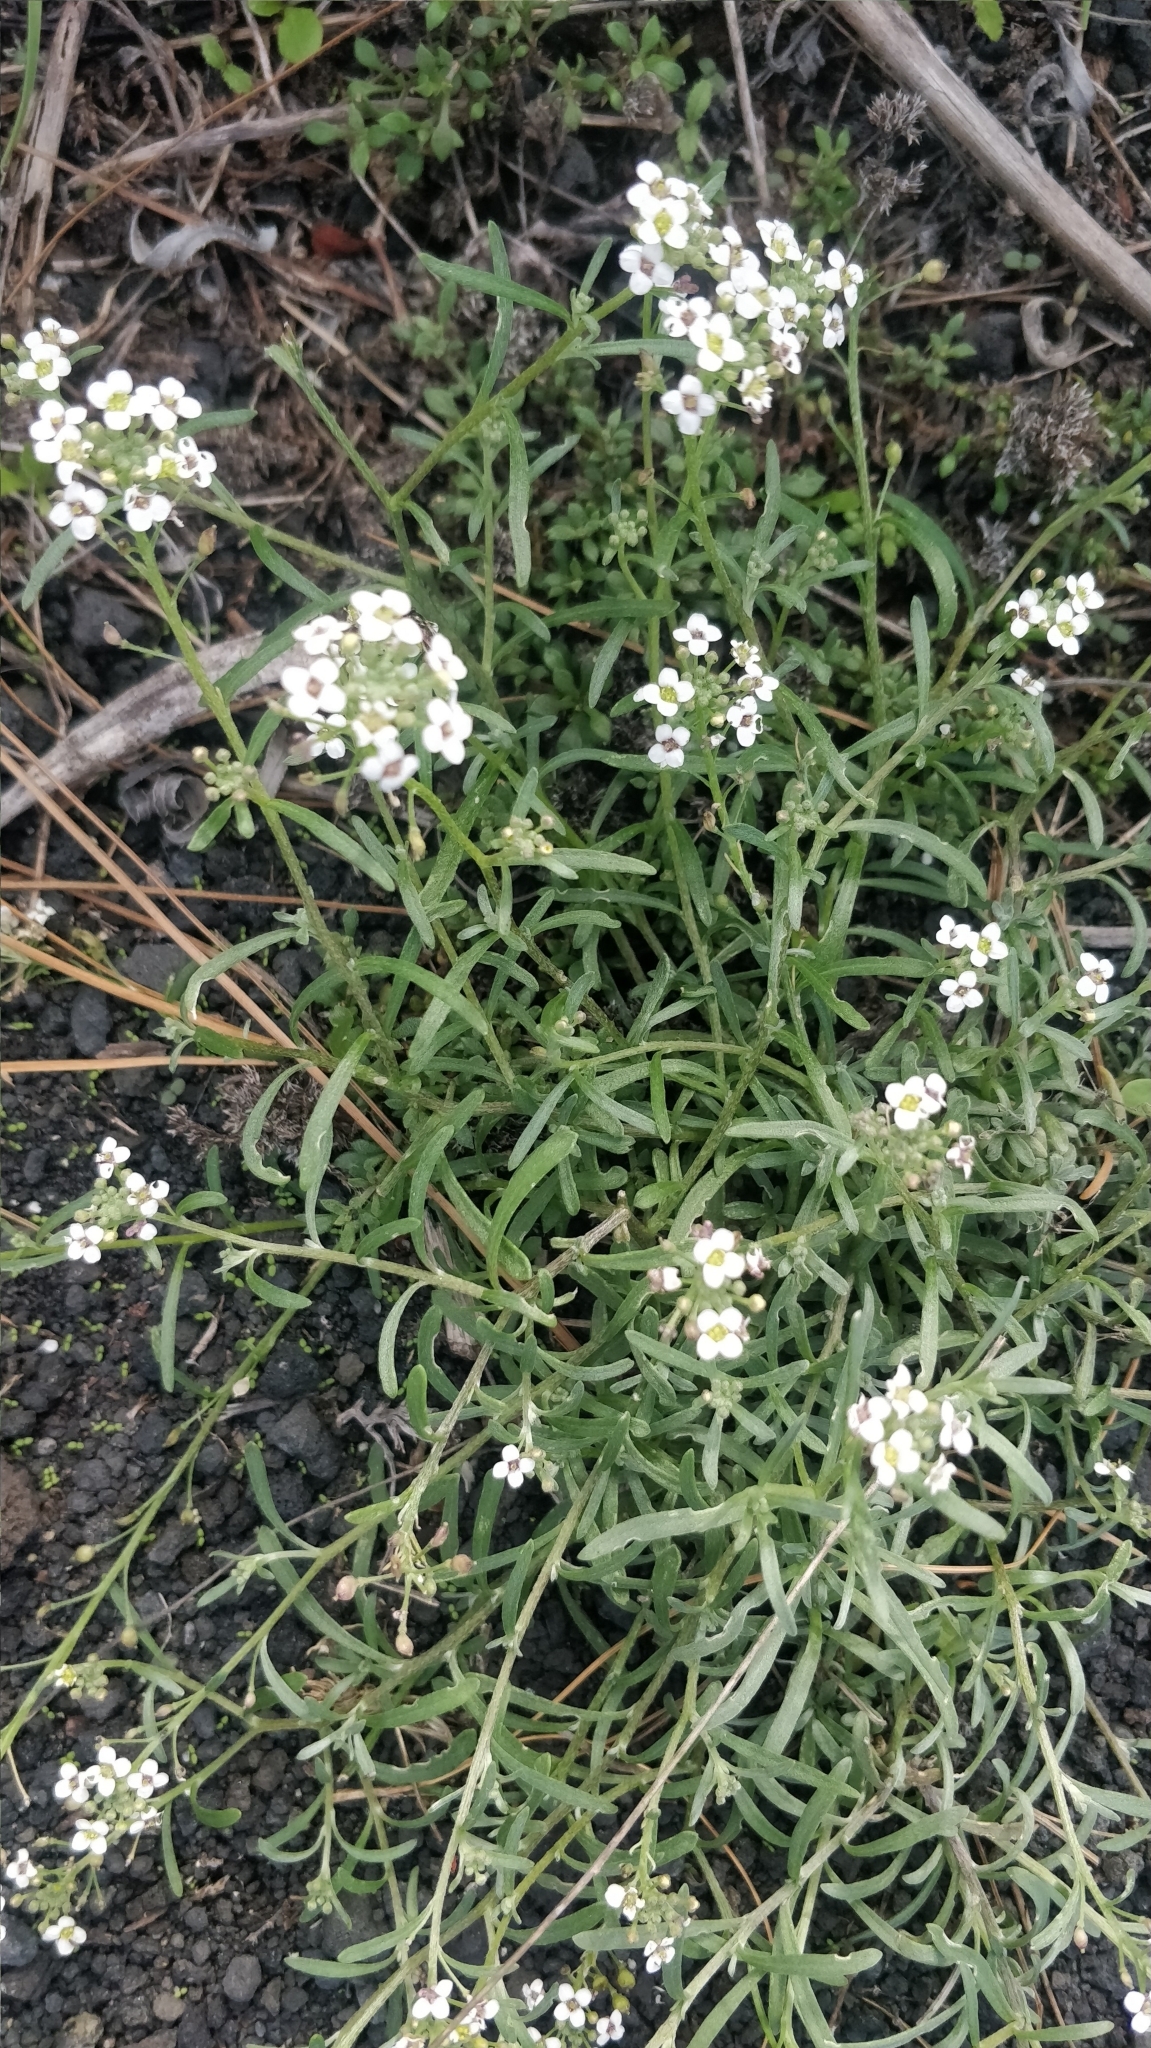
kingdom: Plantae
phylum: Tracheophyta
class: Magnoliopsida
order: Brassicales
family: Brassicaceae
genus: Lobularia
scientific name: Lobularia canariensis
